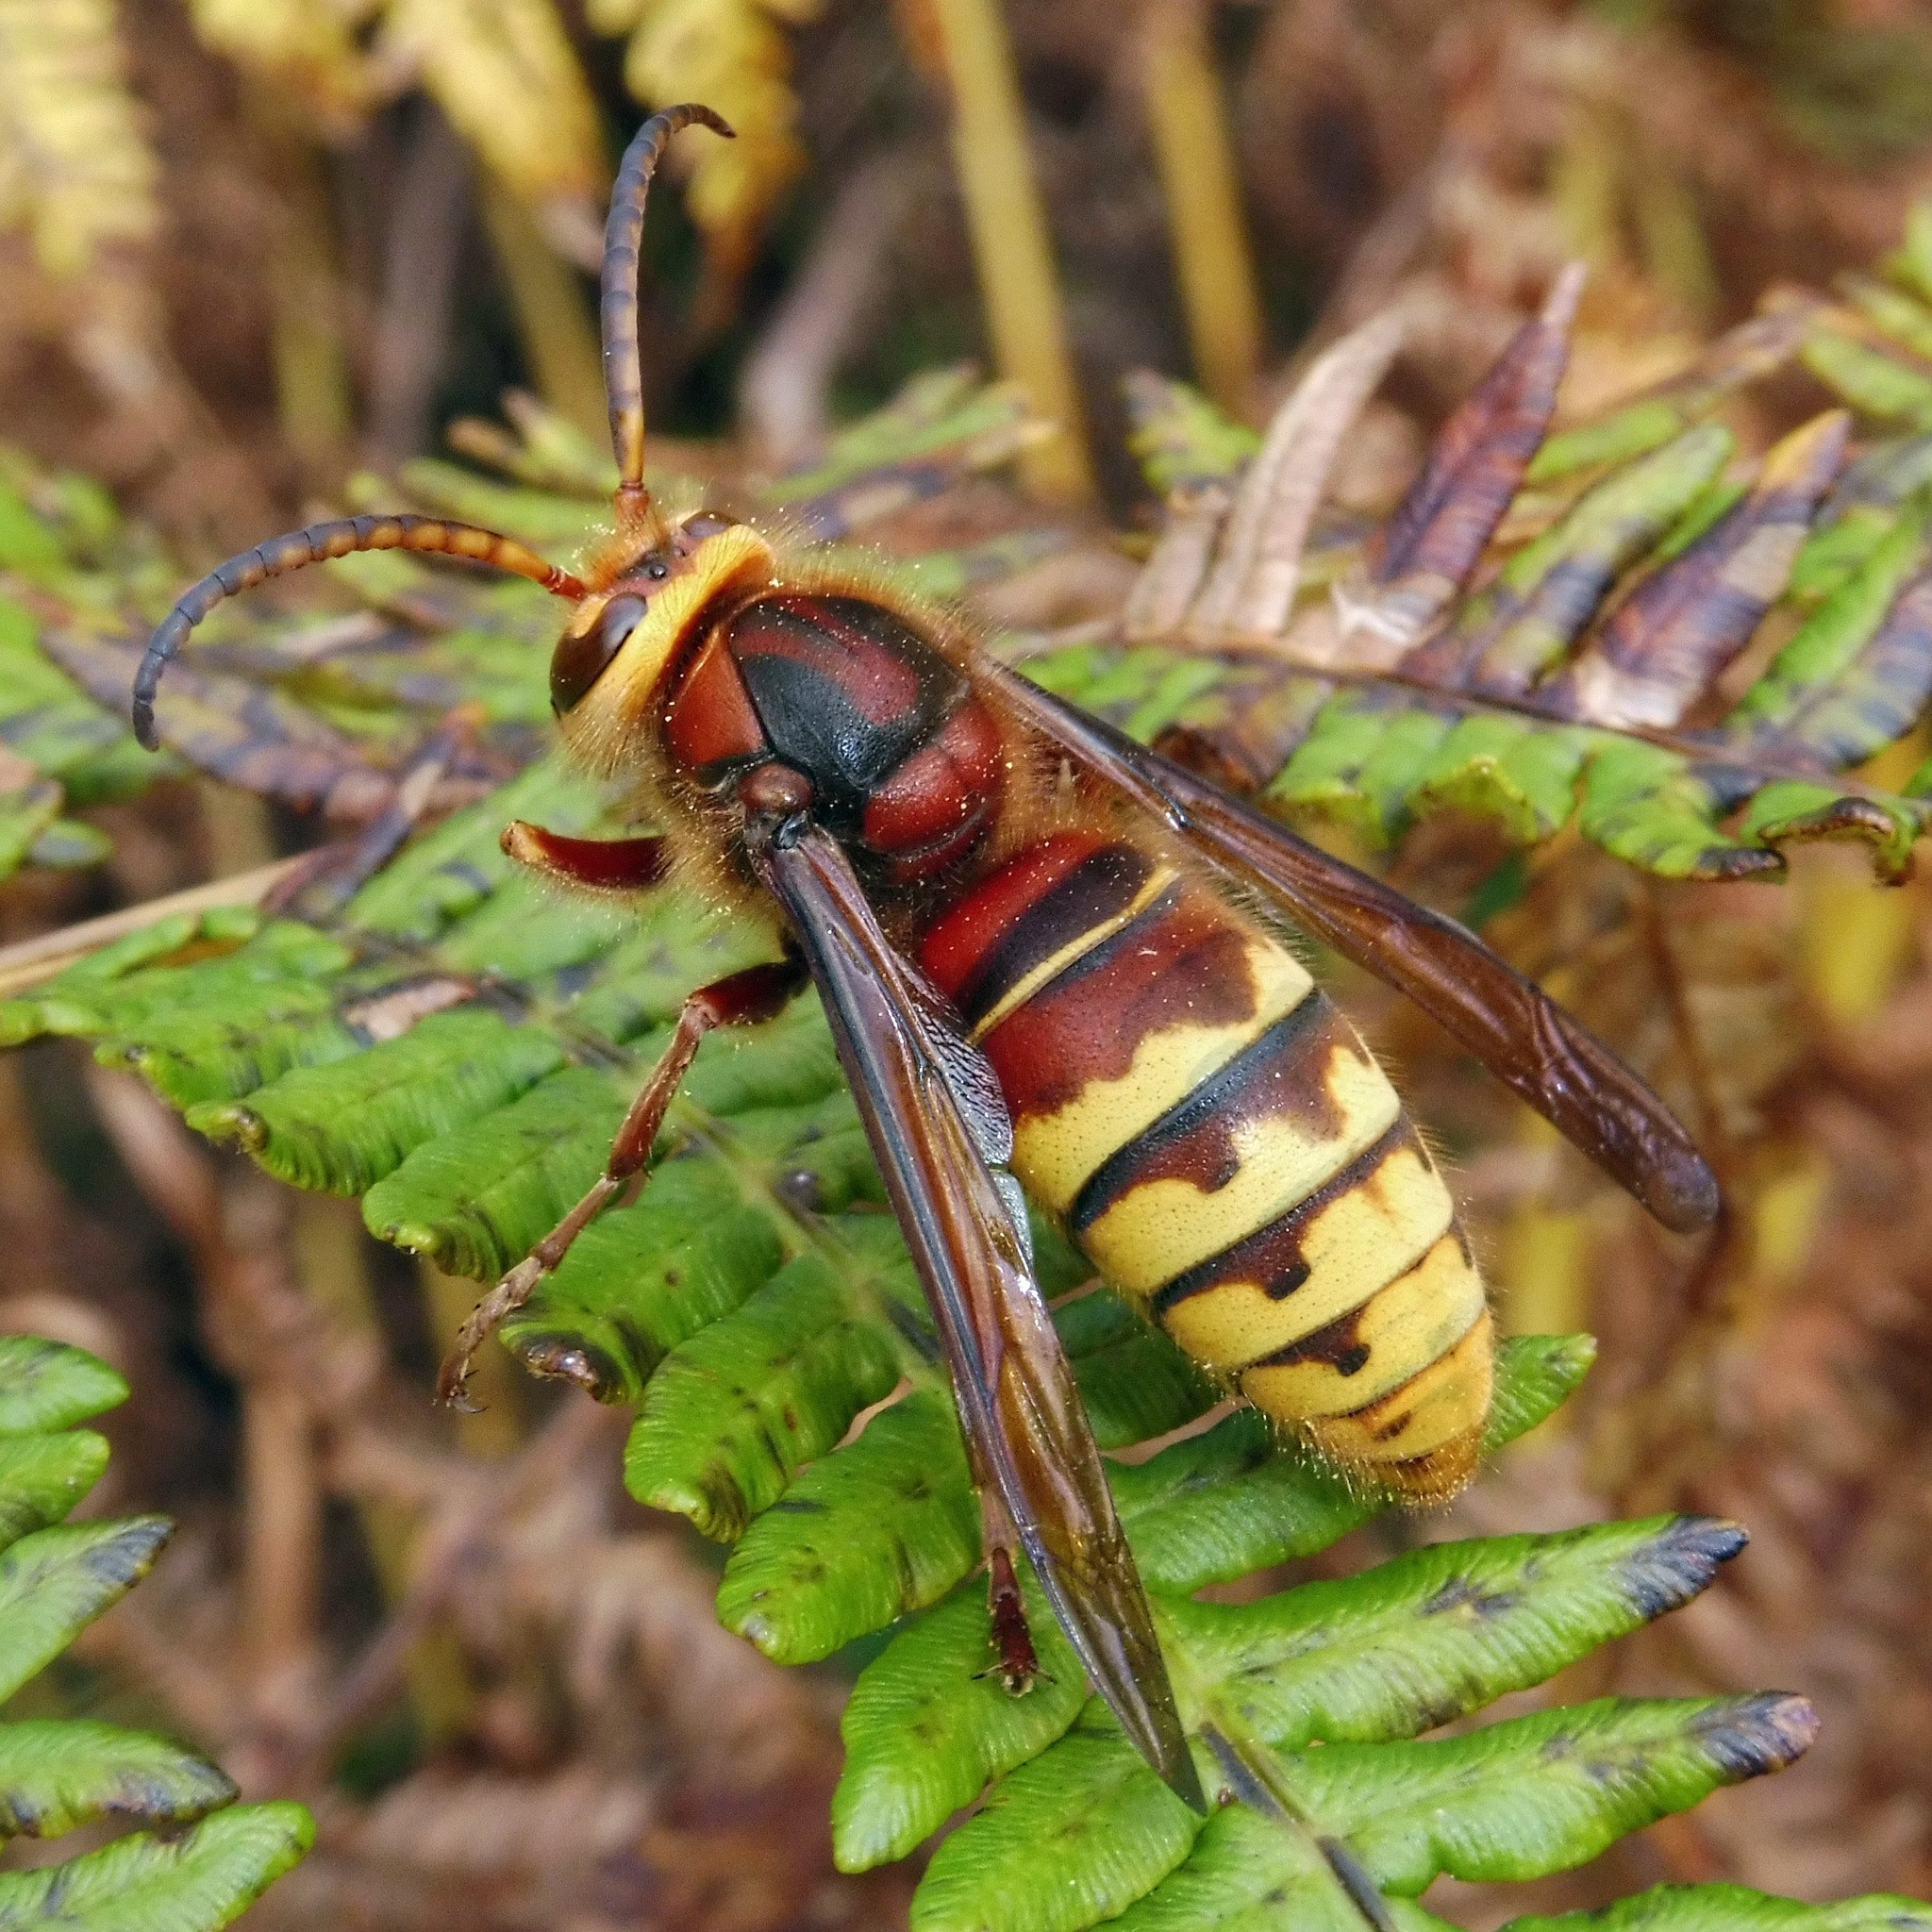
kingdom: Animalia
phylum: Arthropoda
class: Insecta
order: Hymenoptera
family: Vespidae
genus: Vespa
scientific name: Vespa crabro
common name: Hornet
